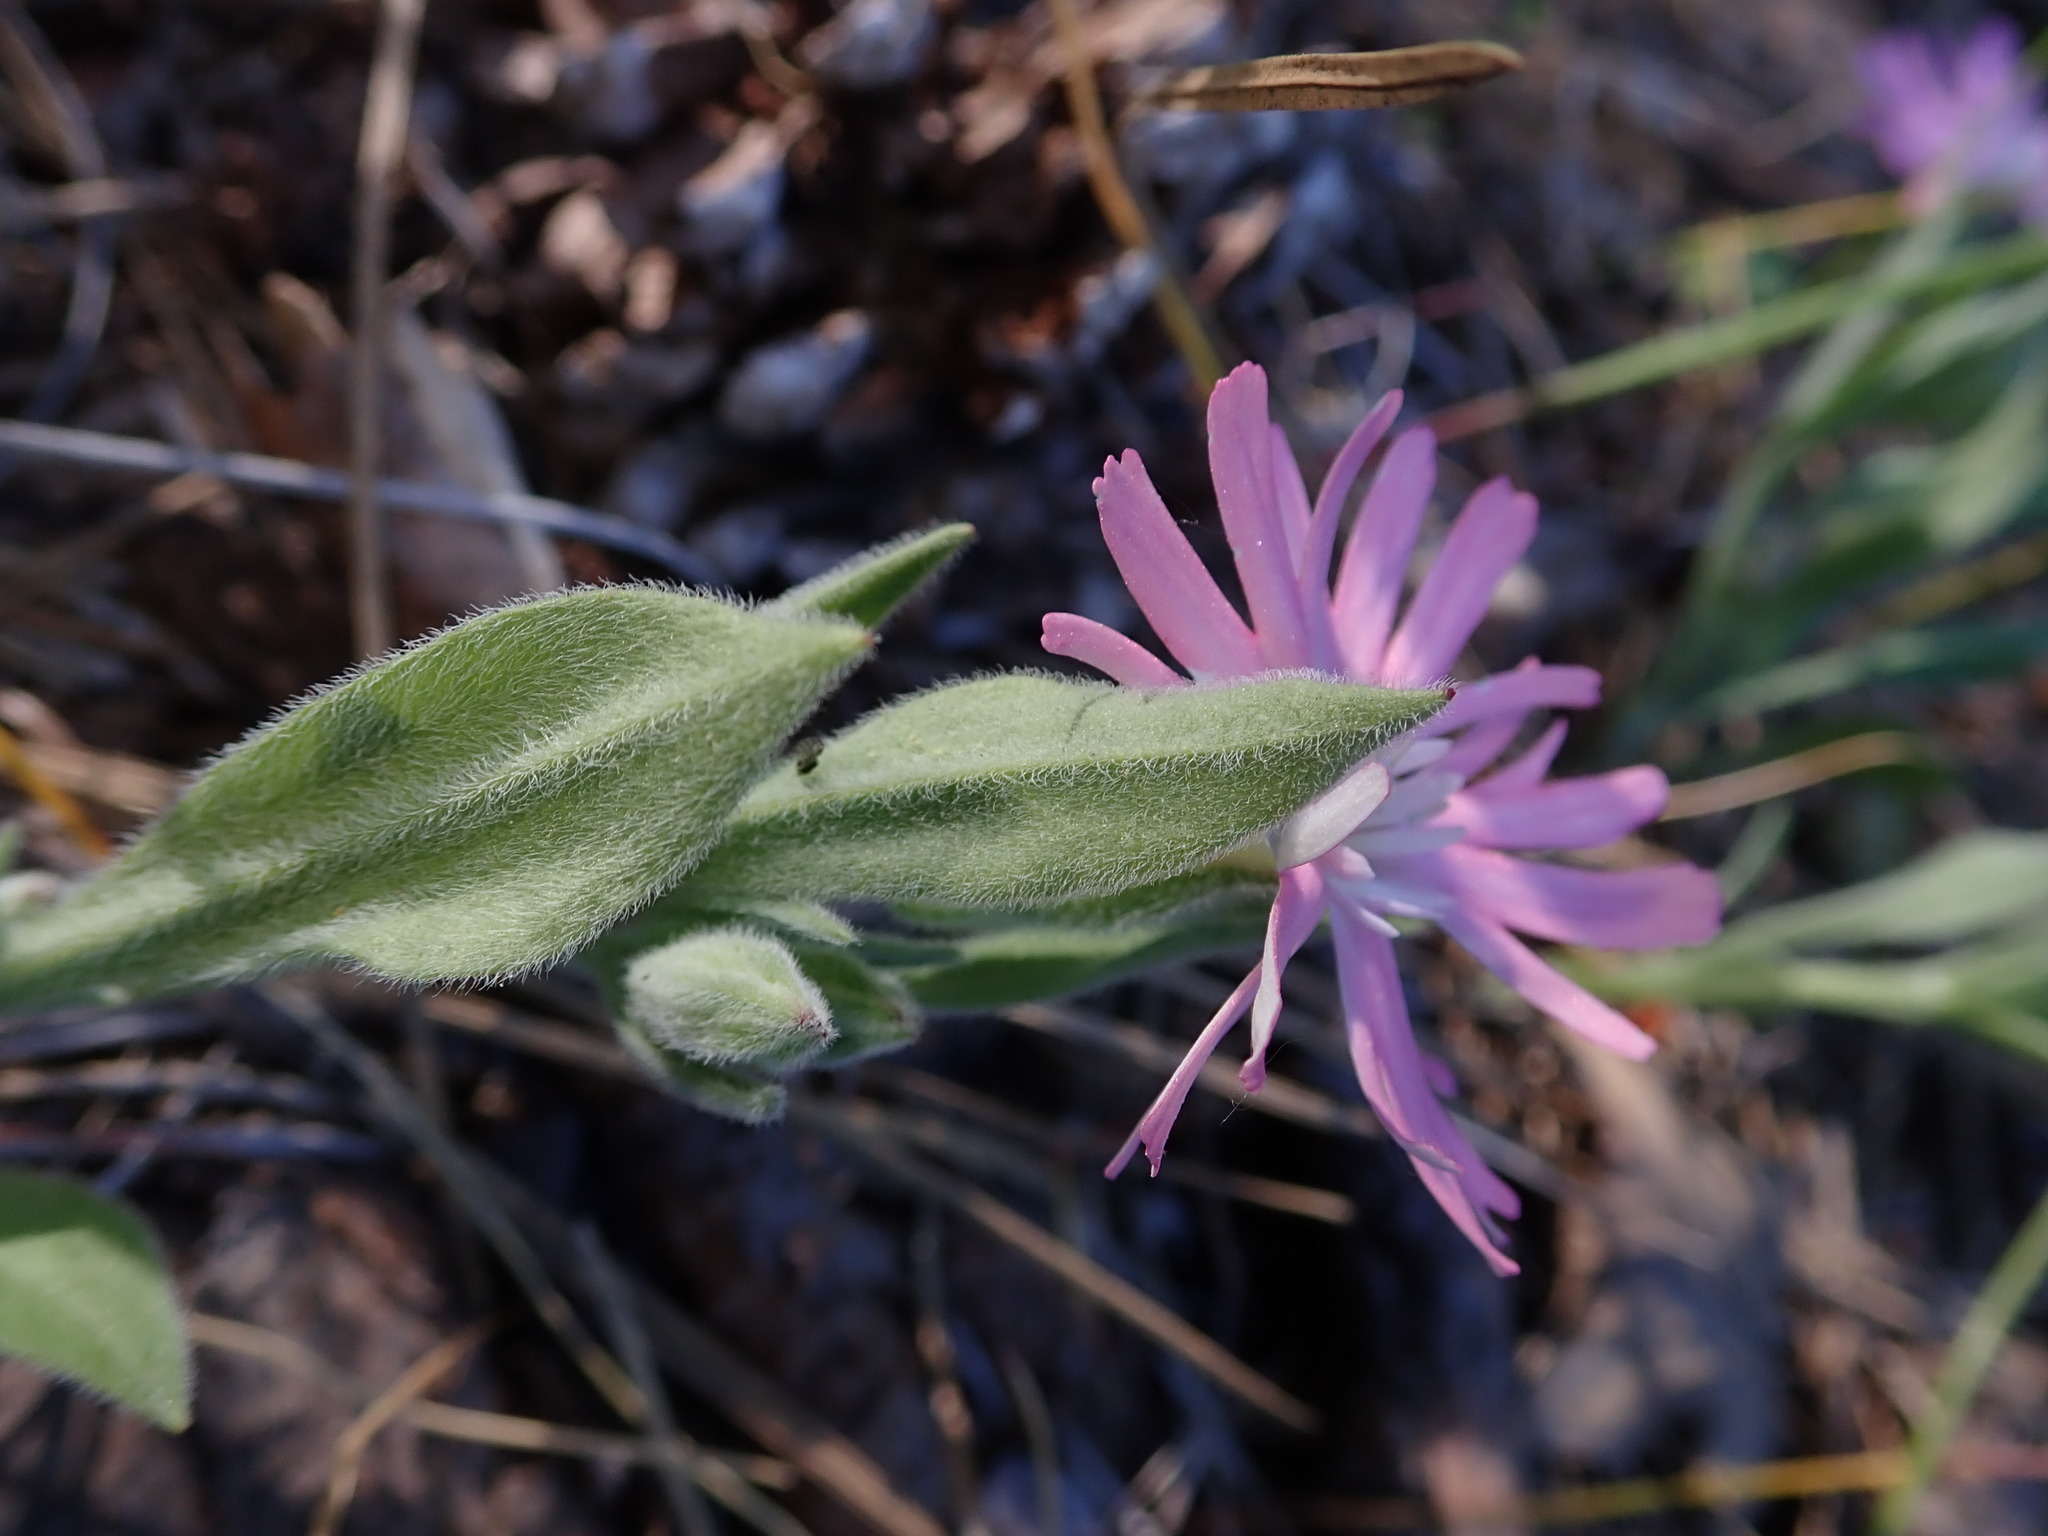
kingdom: Plantae
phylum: Tracheophyta
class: Magnoliopsida
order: Caryophyllales
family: Caryophyllaceae
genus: Silene
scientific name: Silene hookeri
